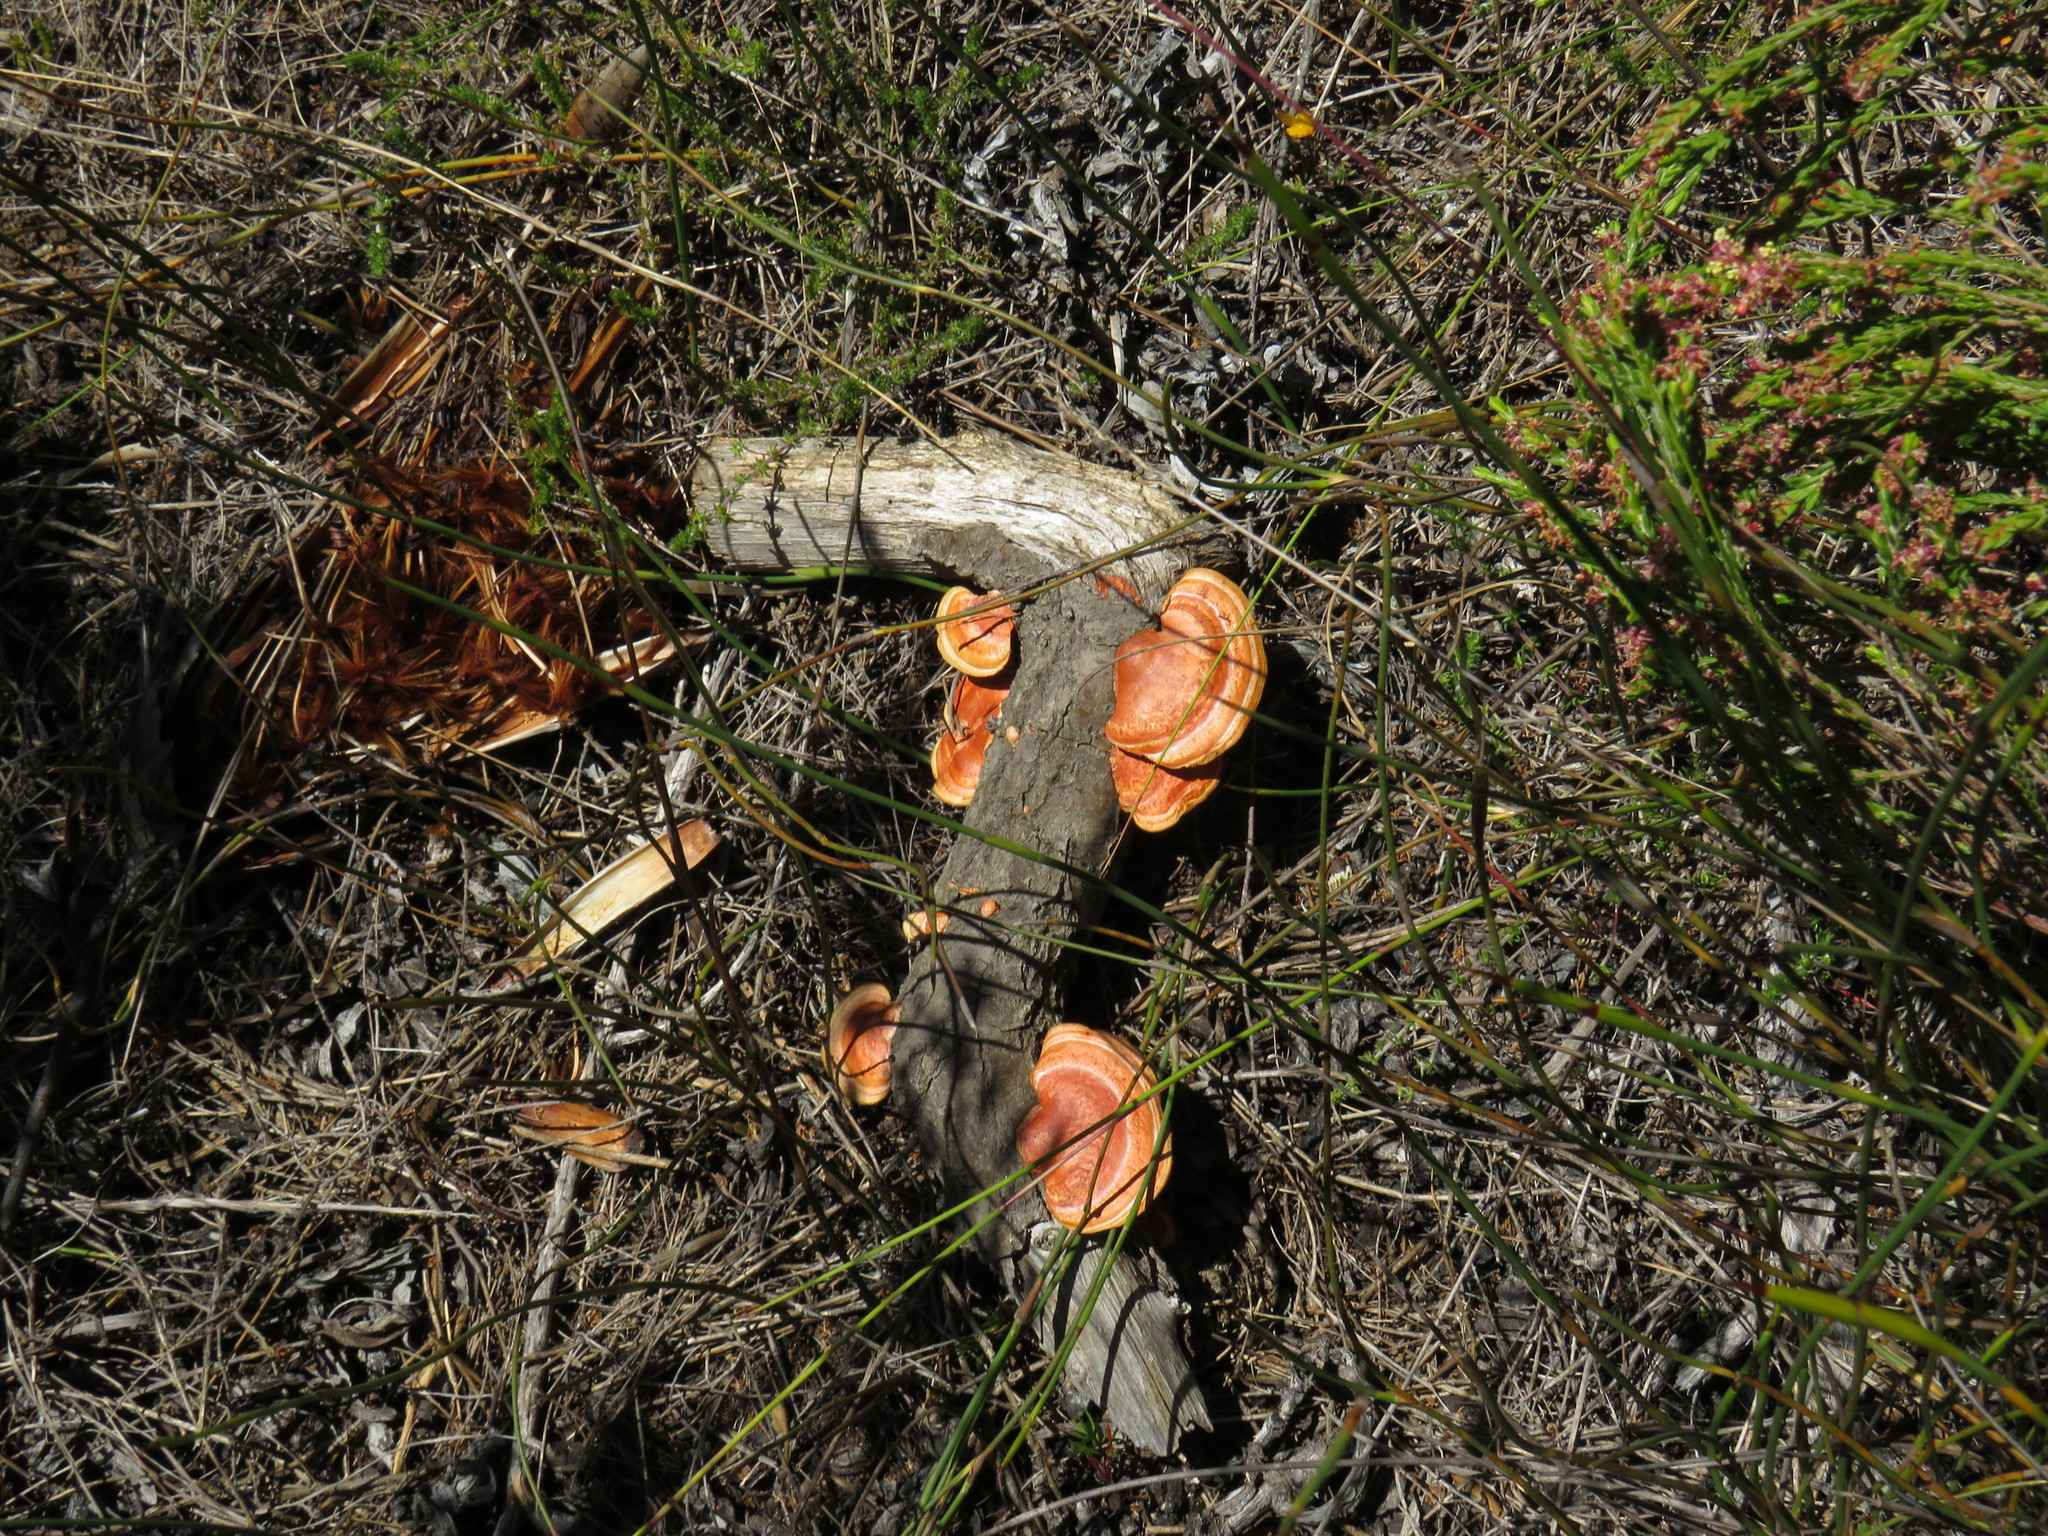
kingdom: Fungi
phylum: Basidiomycota
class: Agaricomycetes
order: Polyporales
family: Polyporaceae
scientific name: Polyporaceae
